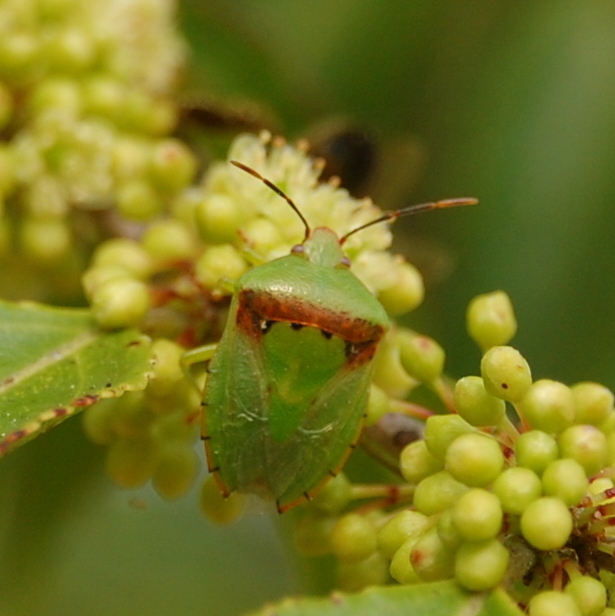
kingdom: Animalia
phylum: Arthropoda
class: Insecta
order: Hemiptera
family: Pentatomidae
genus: Grazia
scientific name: Grazia
